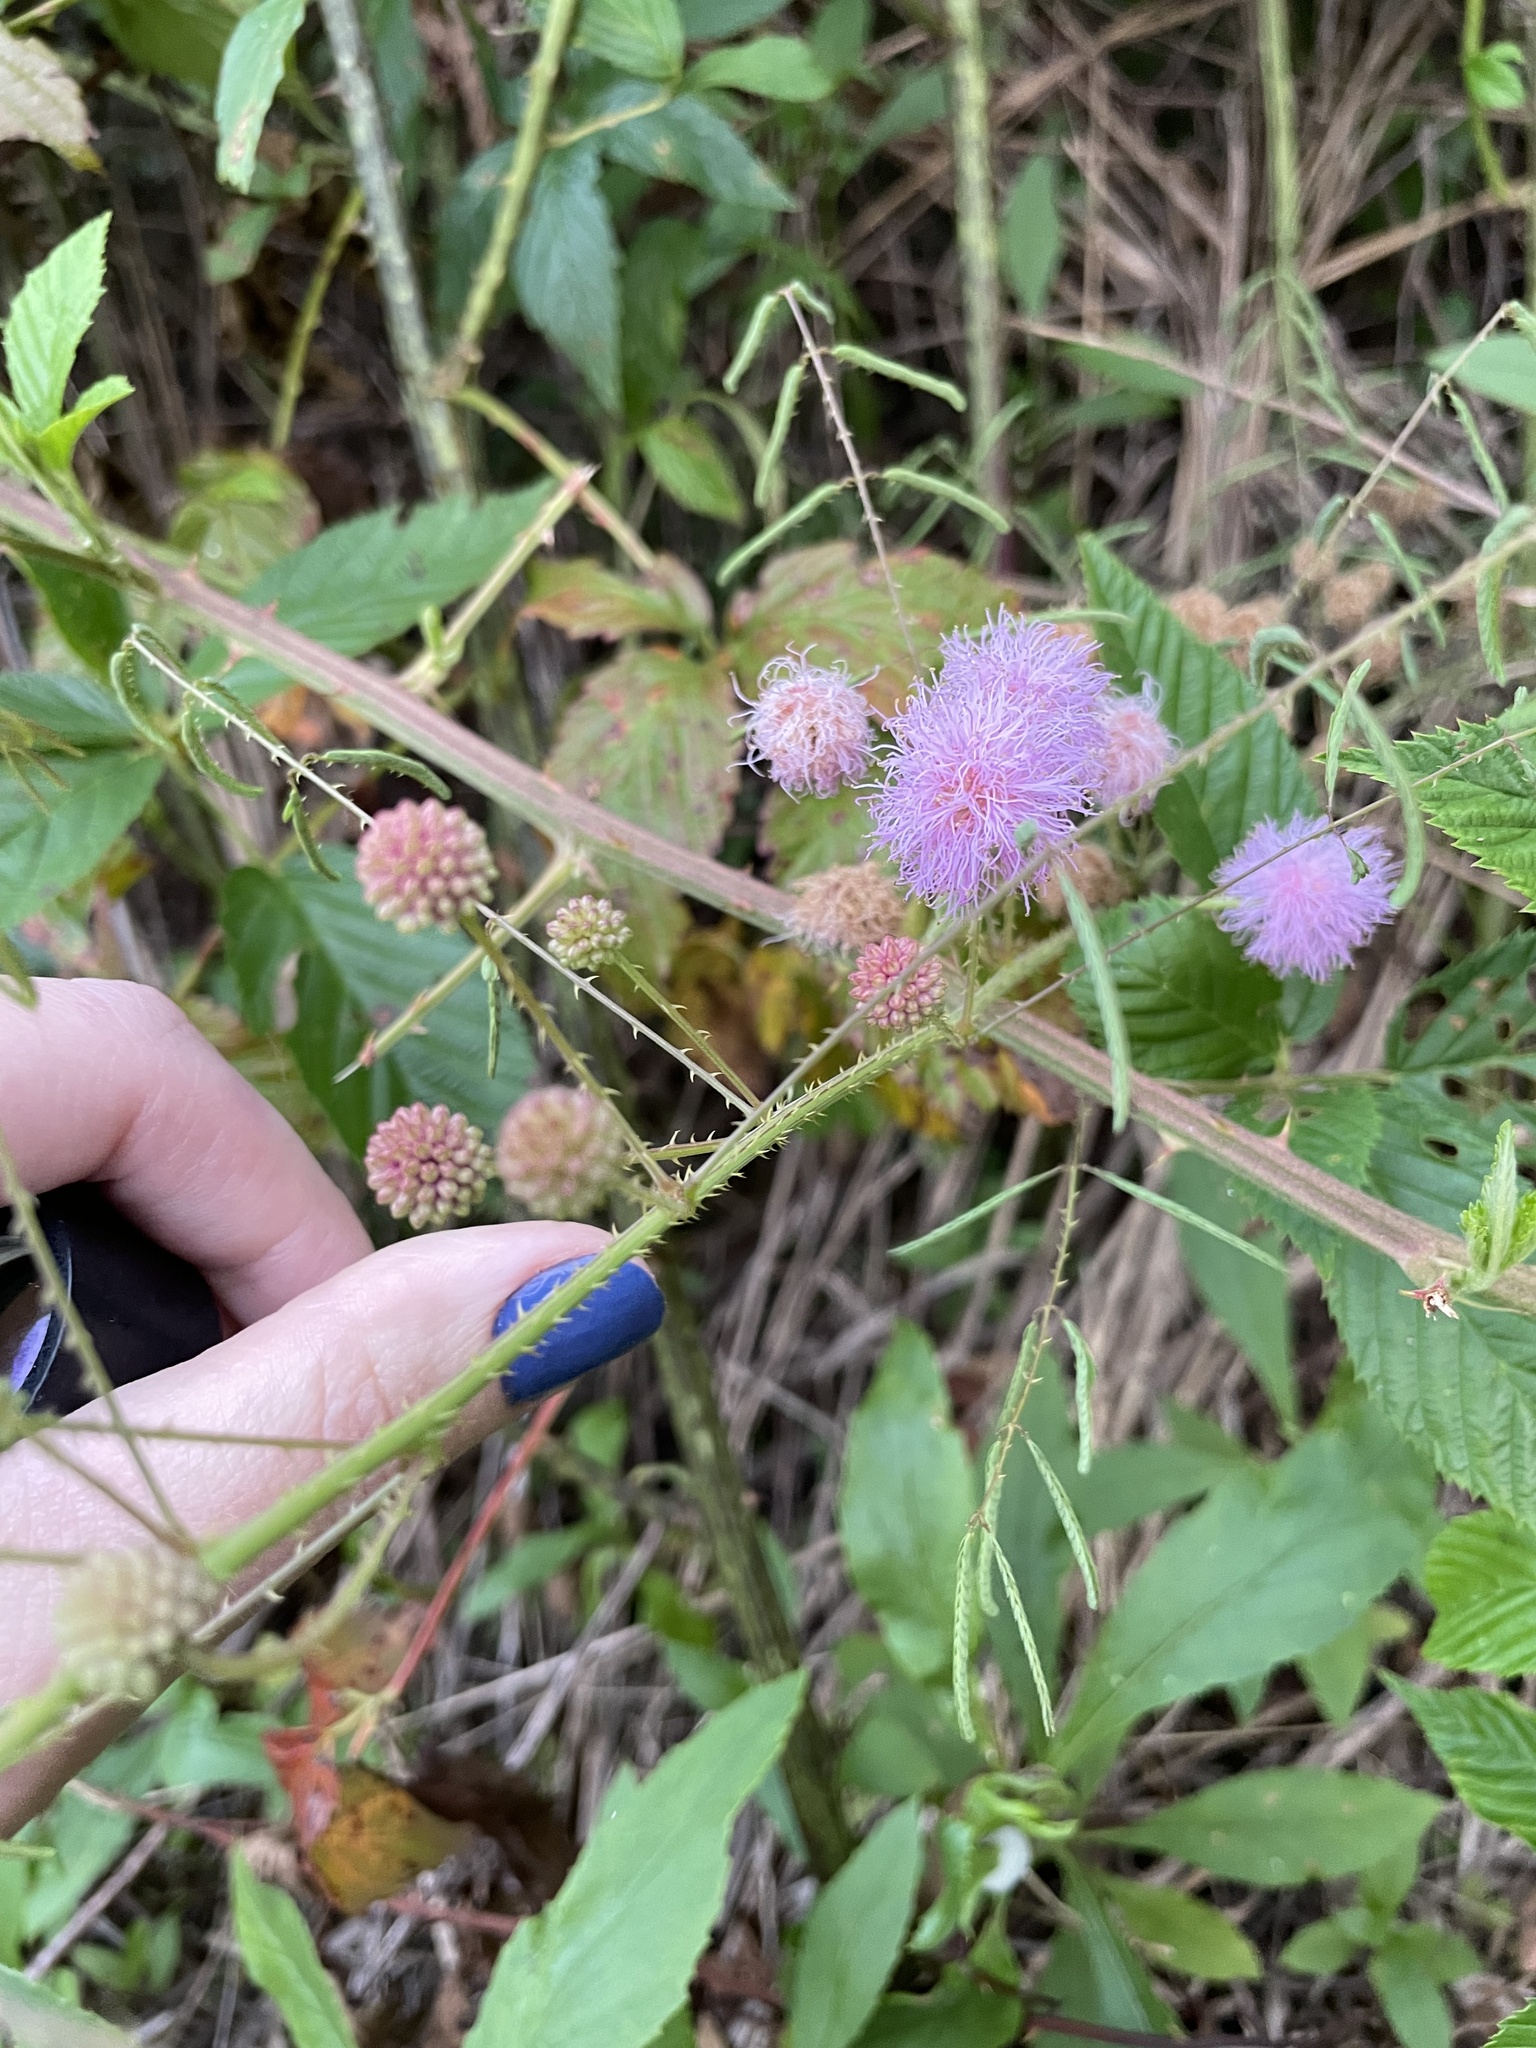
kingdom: Plantae
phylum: Tracheophyta
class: Magnoliopsida
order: Fabales
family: Fabaceae
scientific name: Fabaceae
